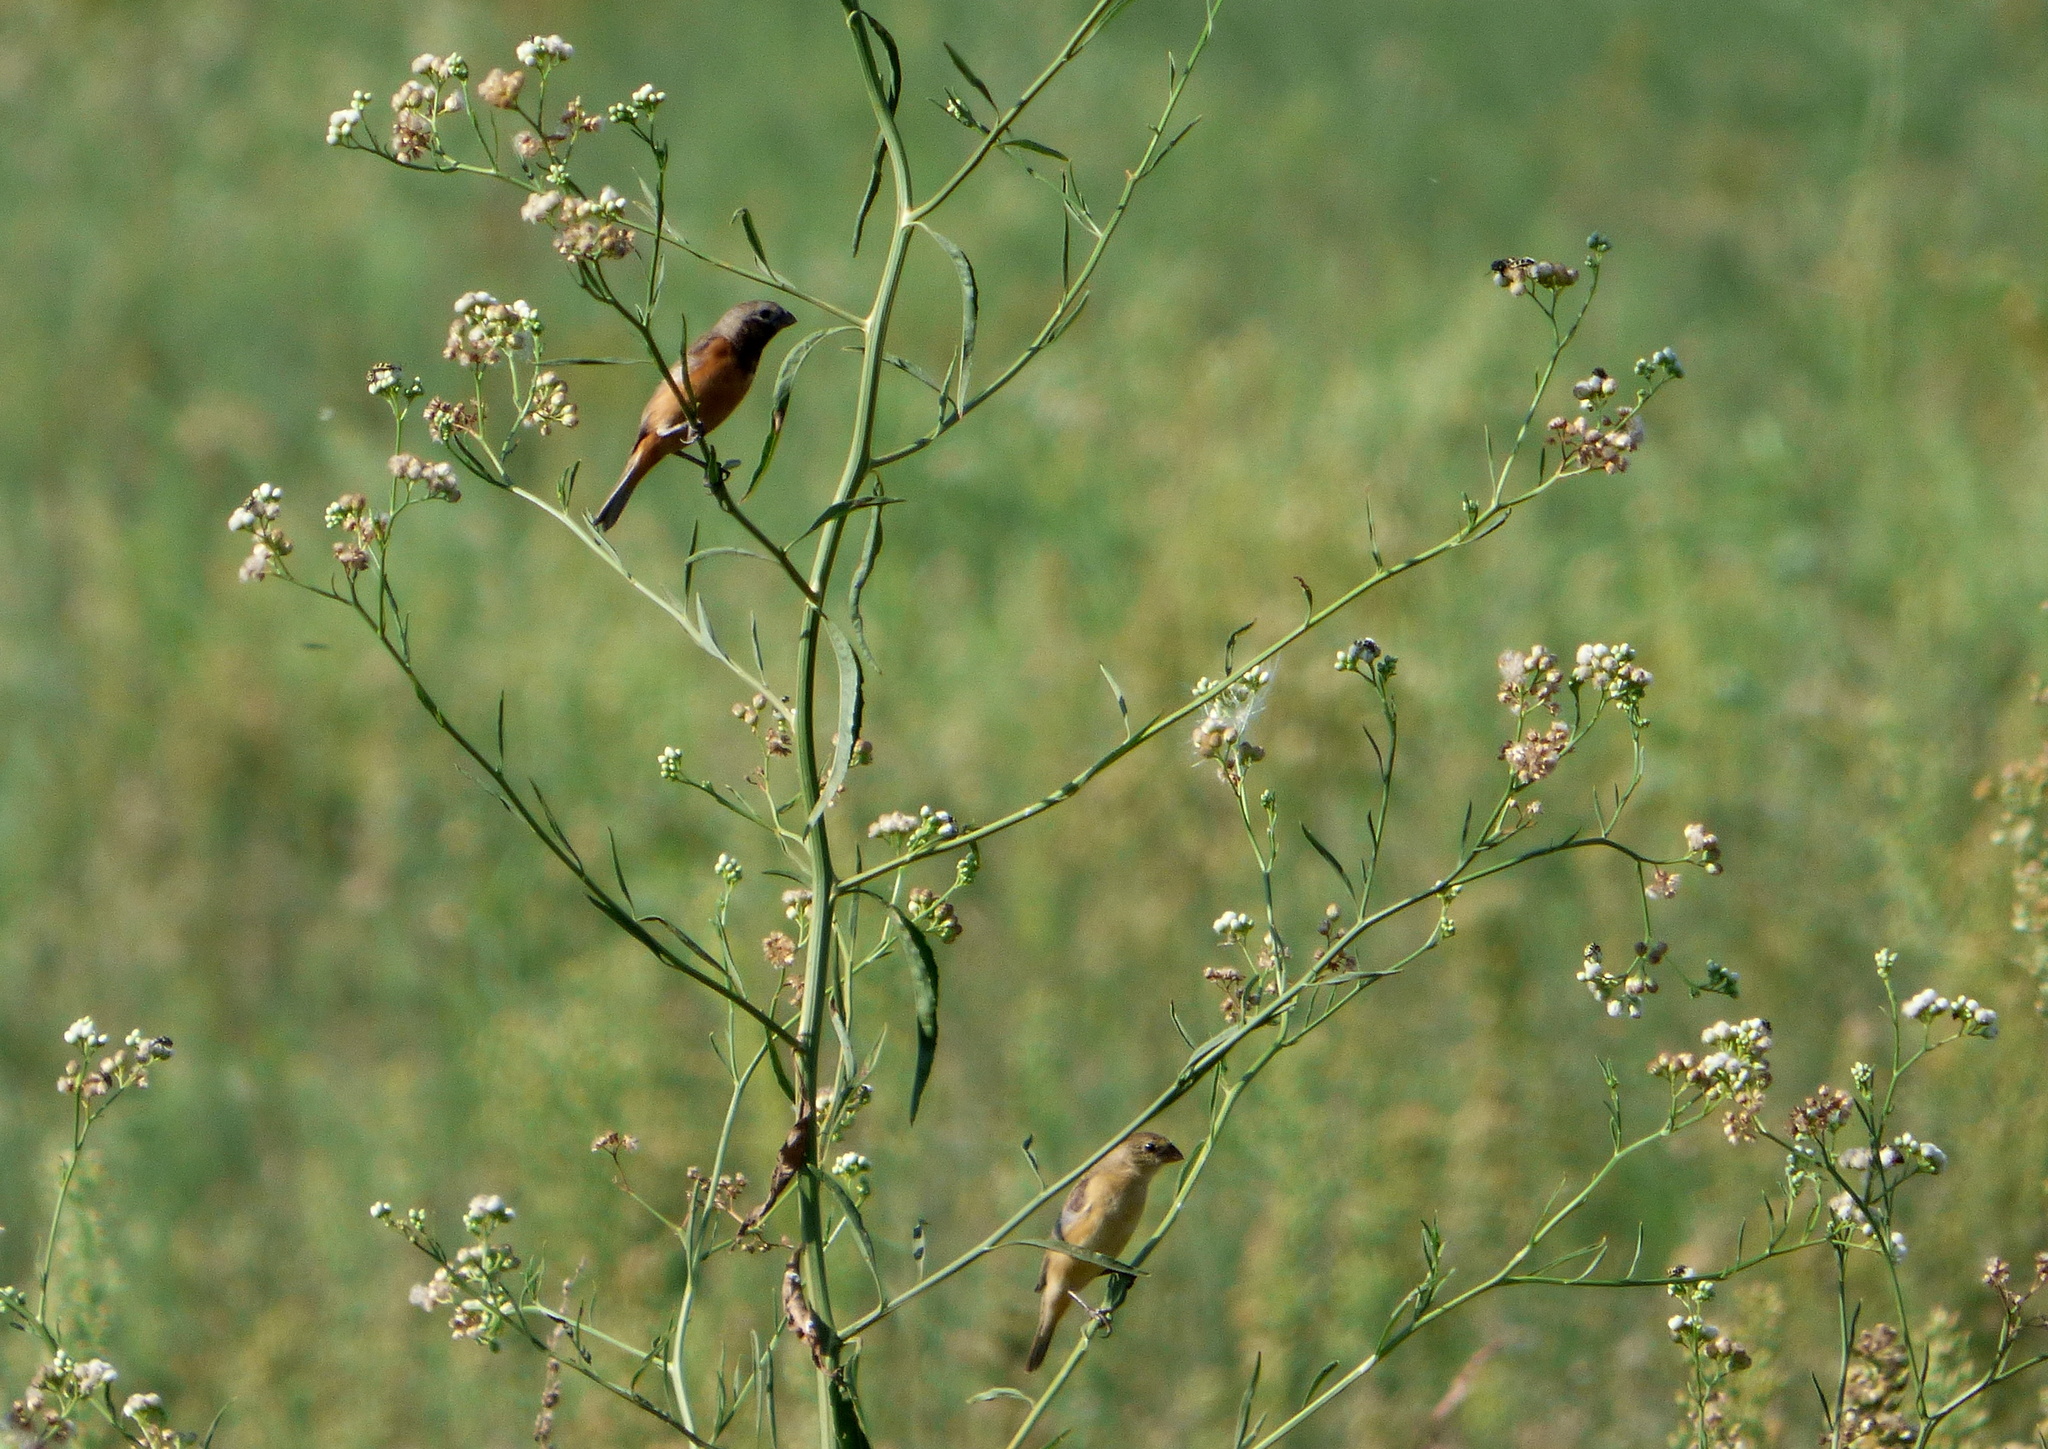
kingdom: Animalia
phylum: Chordata
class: Aves
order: Passeriformes
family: Thraupidae
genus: Sporophila
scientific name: Sporophila ruficollis
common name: Dark-throated seedeater
